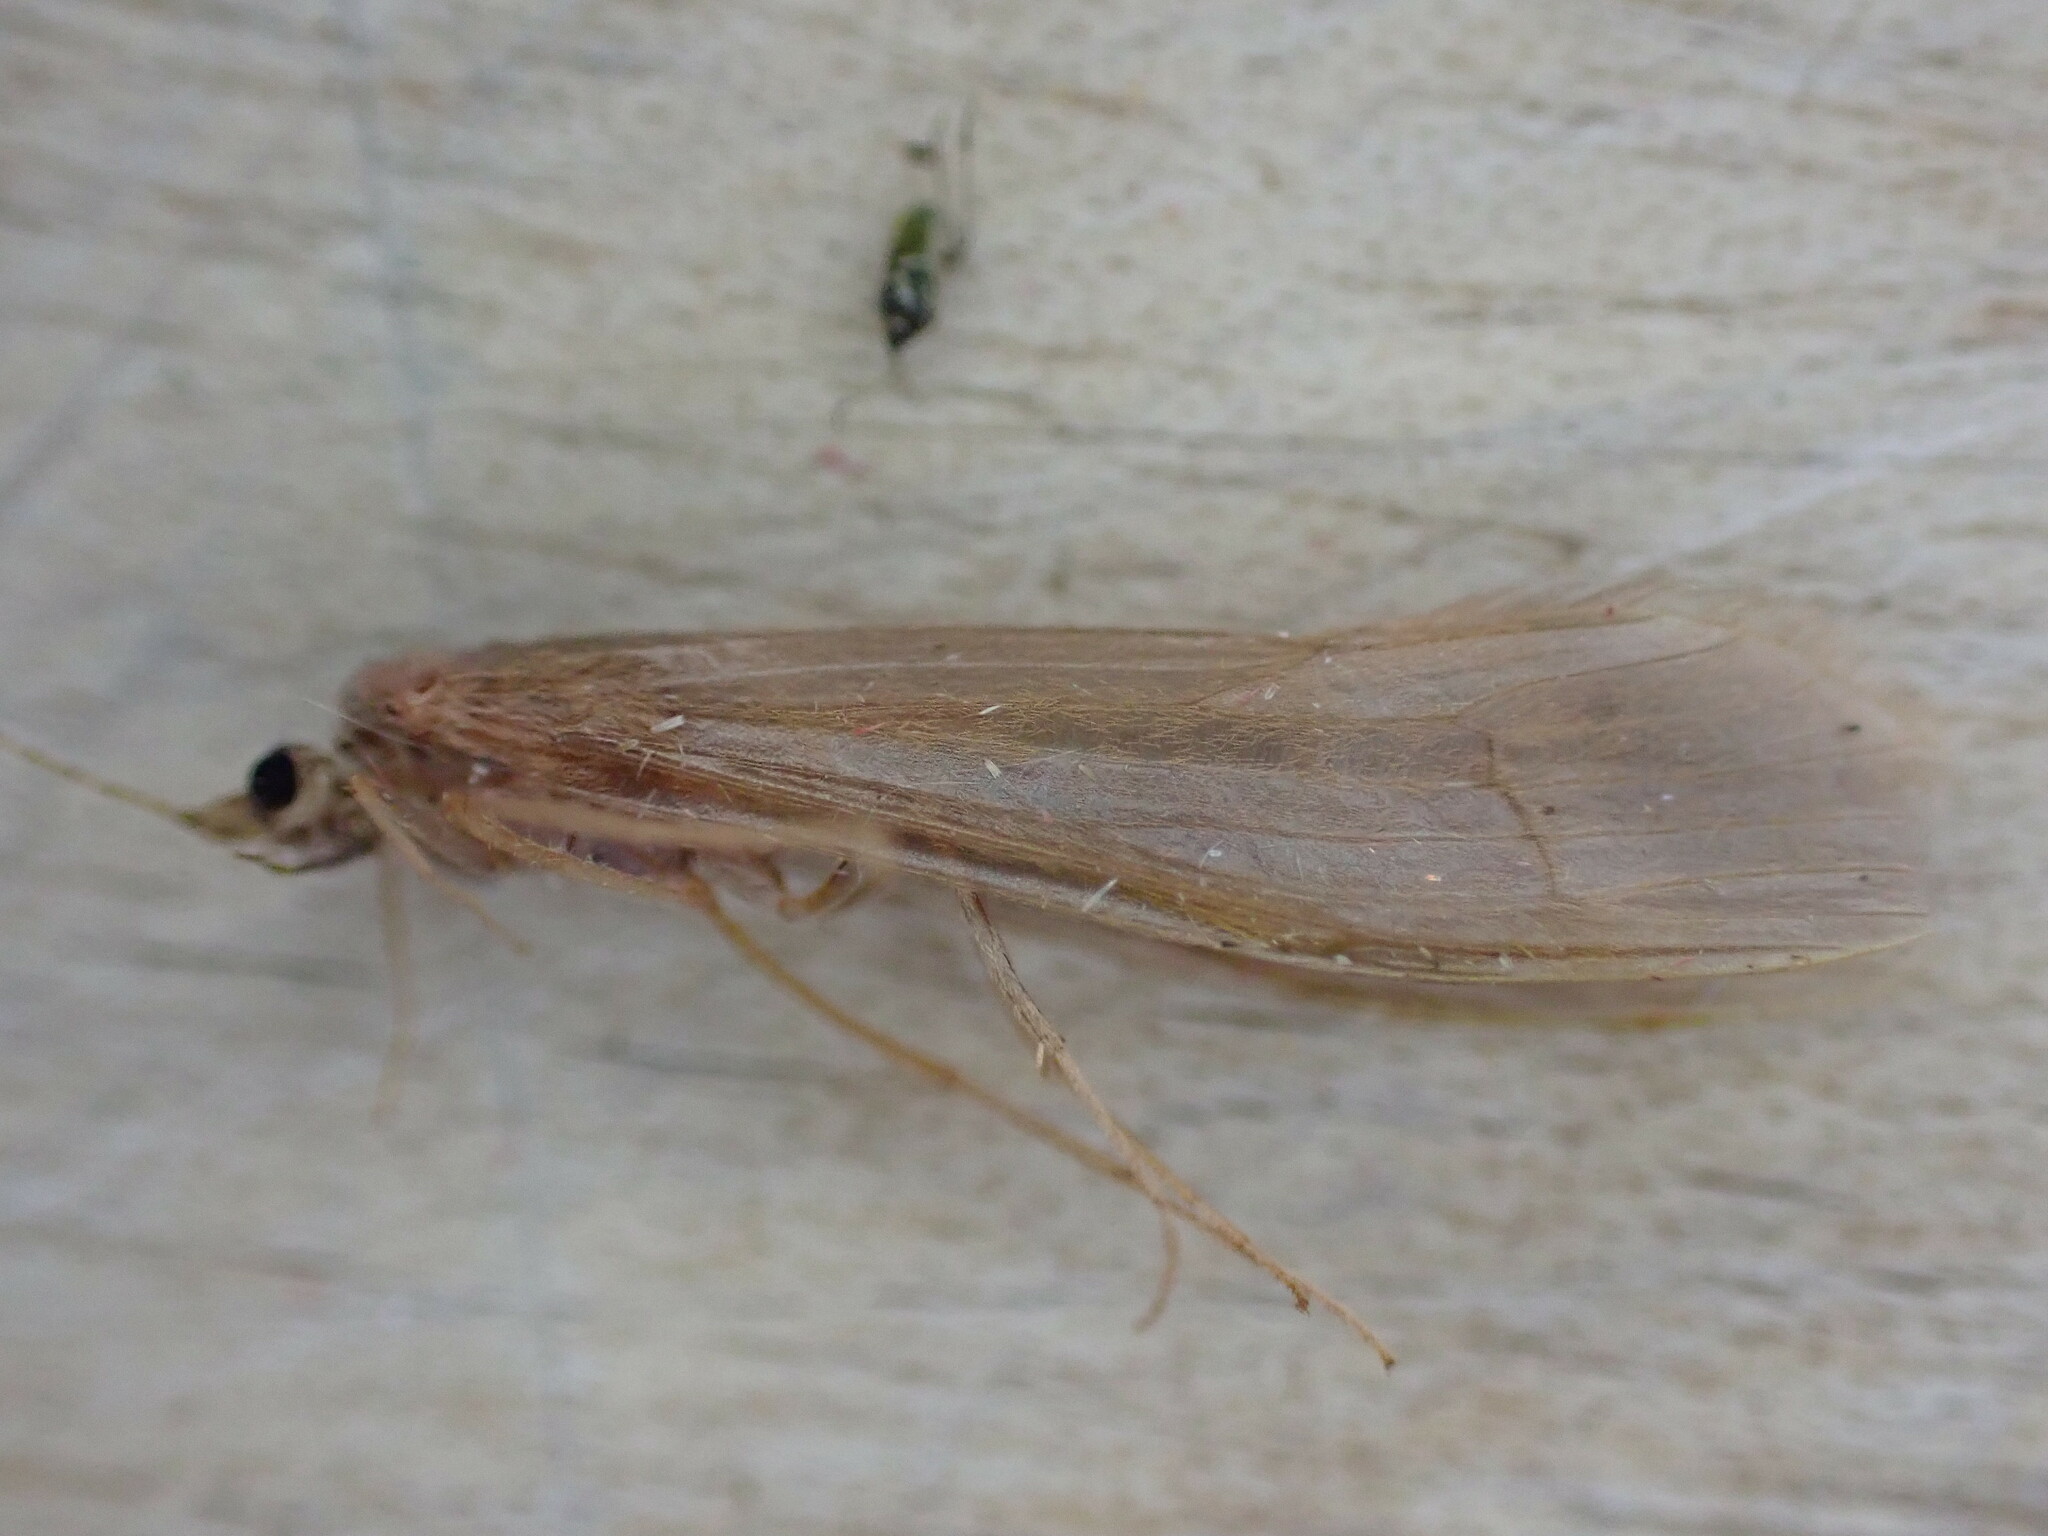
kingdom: Animalia
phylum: Arthropoda
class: Insecta
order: Trichoptera
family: Leptoceridae
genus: Oecetis
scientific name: Oecetis ochracea
